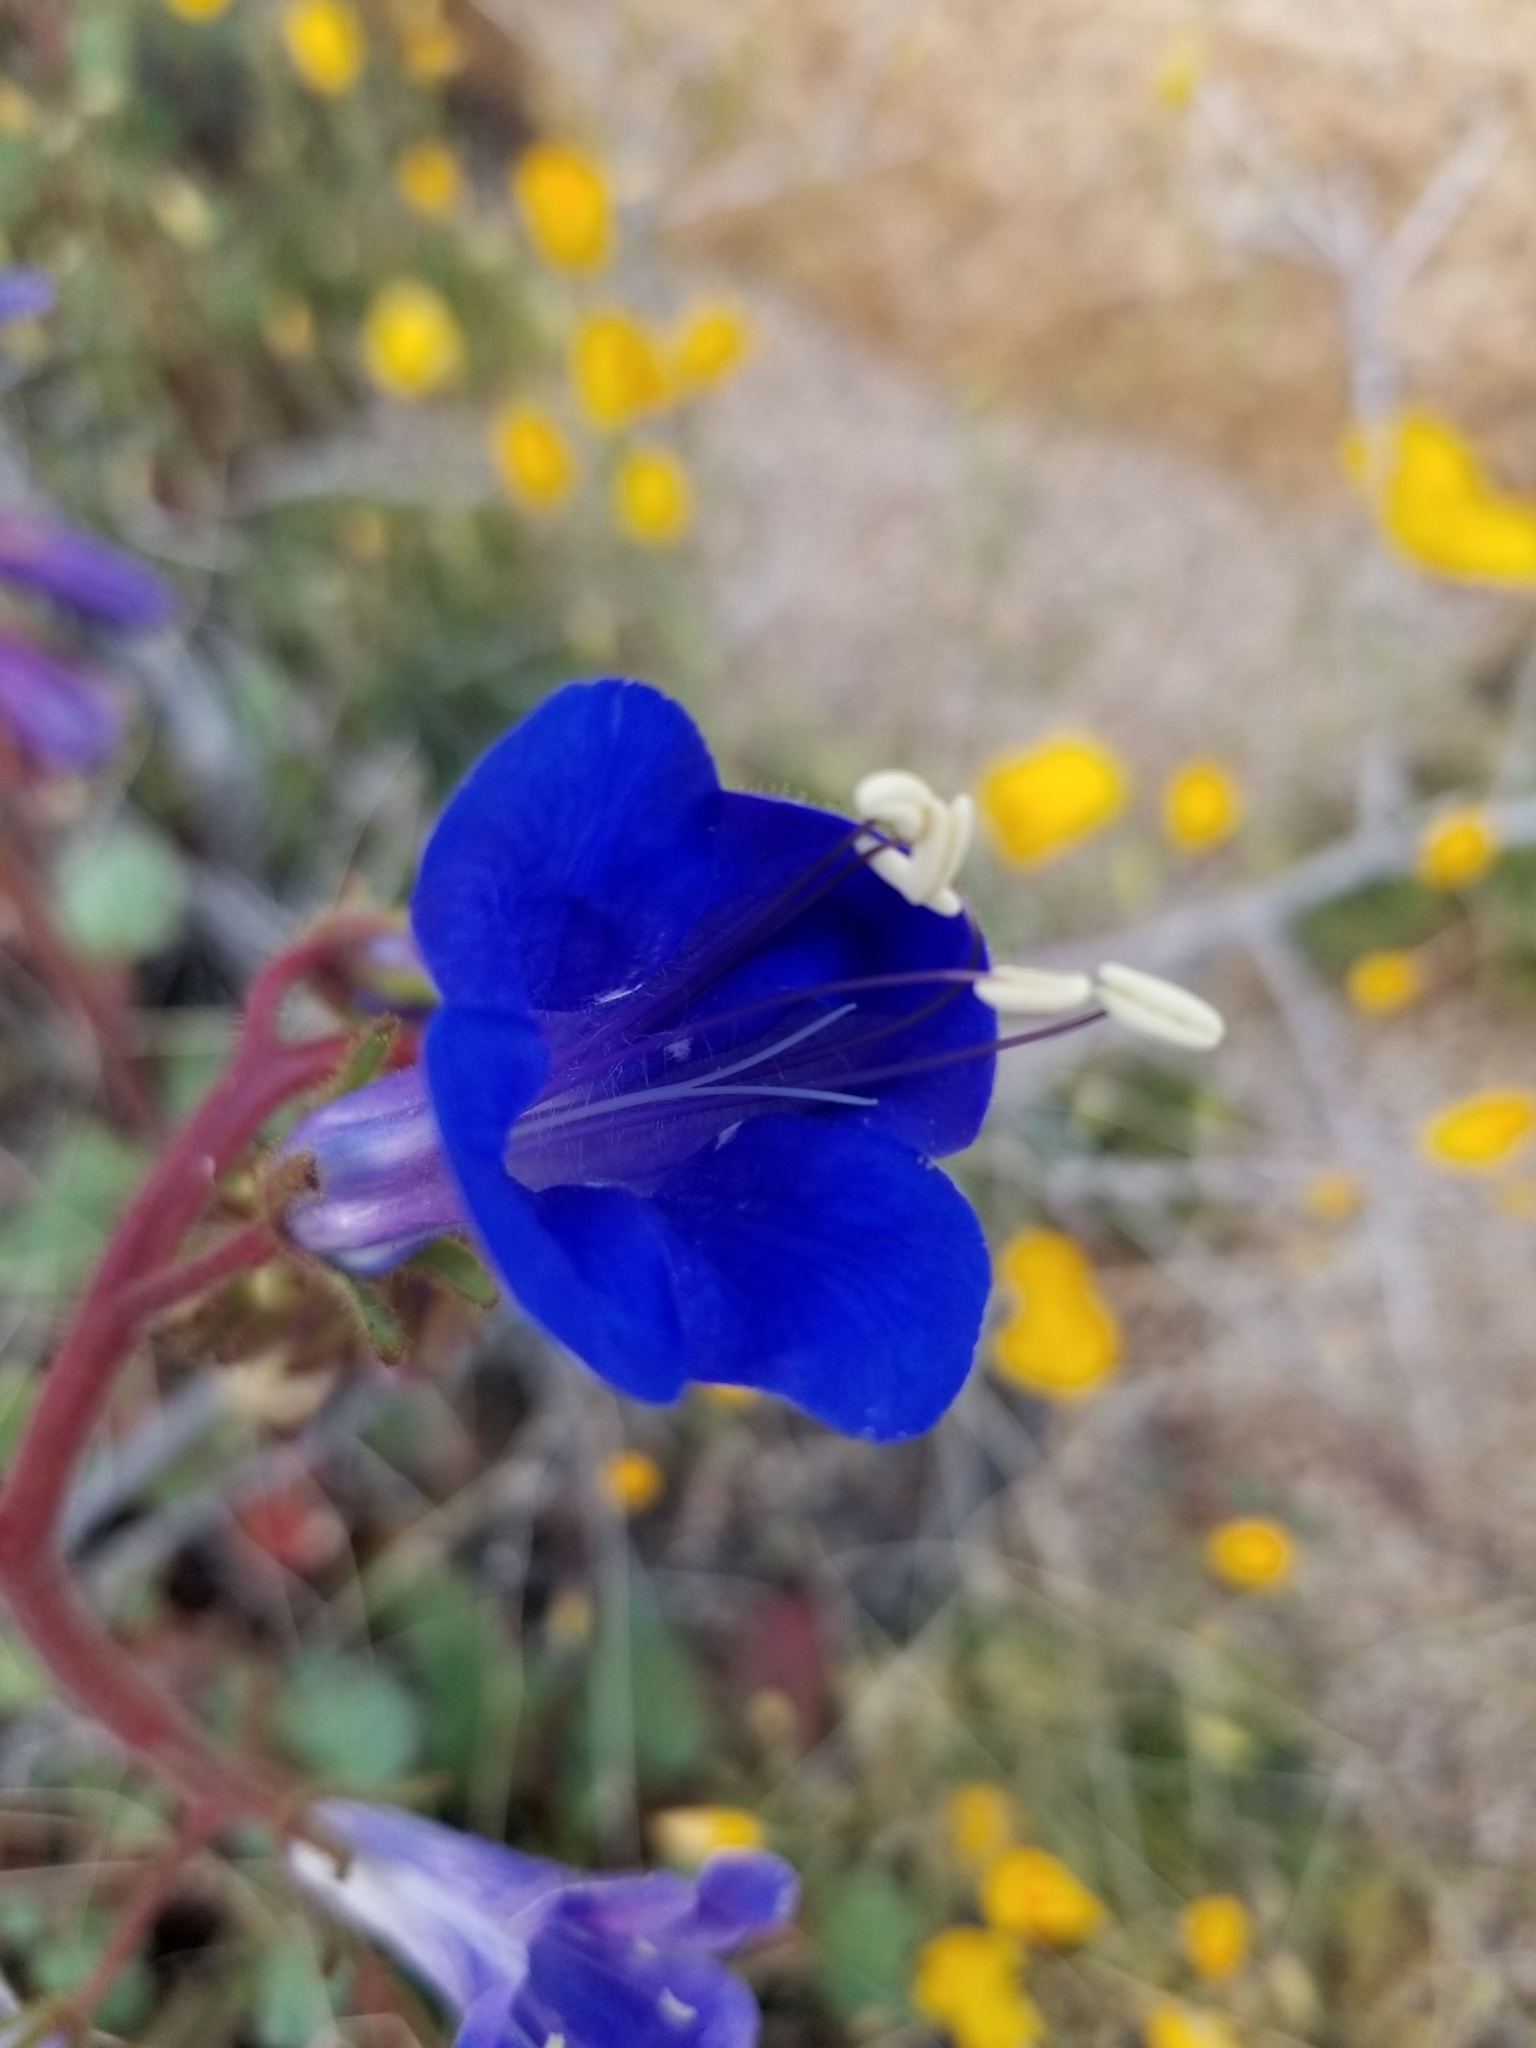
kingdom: Plantae
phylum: Tracheophyta
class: Magnoliopsida
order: Boraginales
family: Hydrophyllaceae
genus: Phacelia
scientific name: Phacelia campanularia
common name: California bluebell
